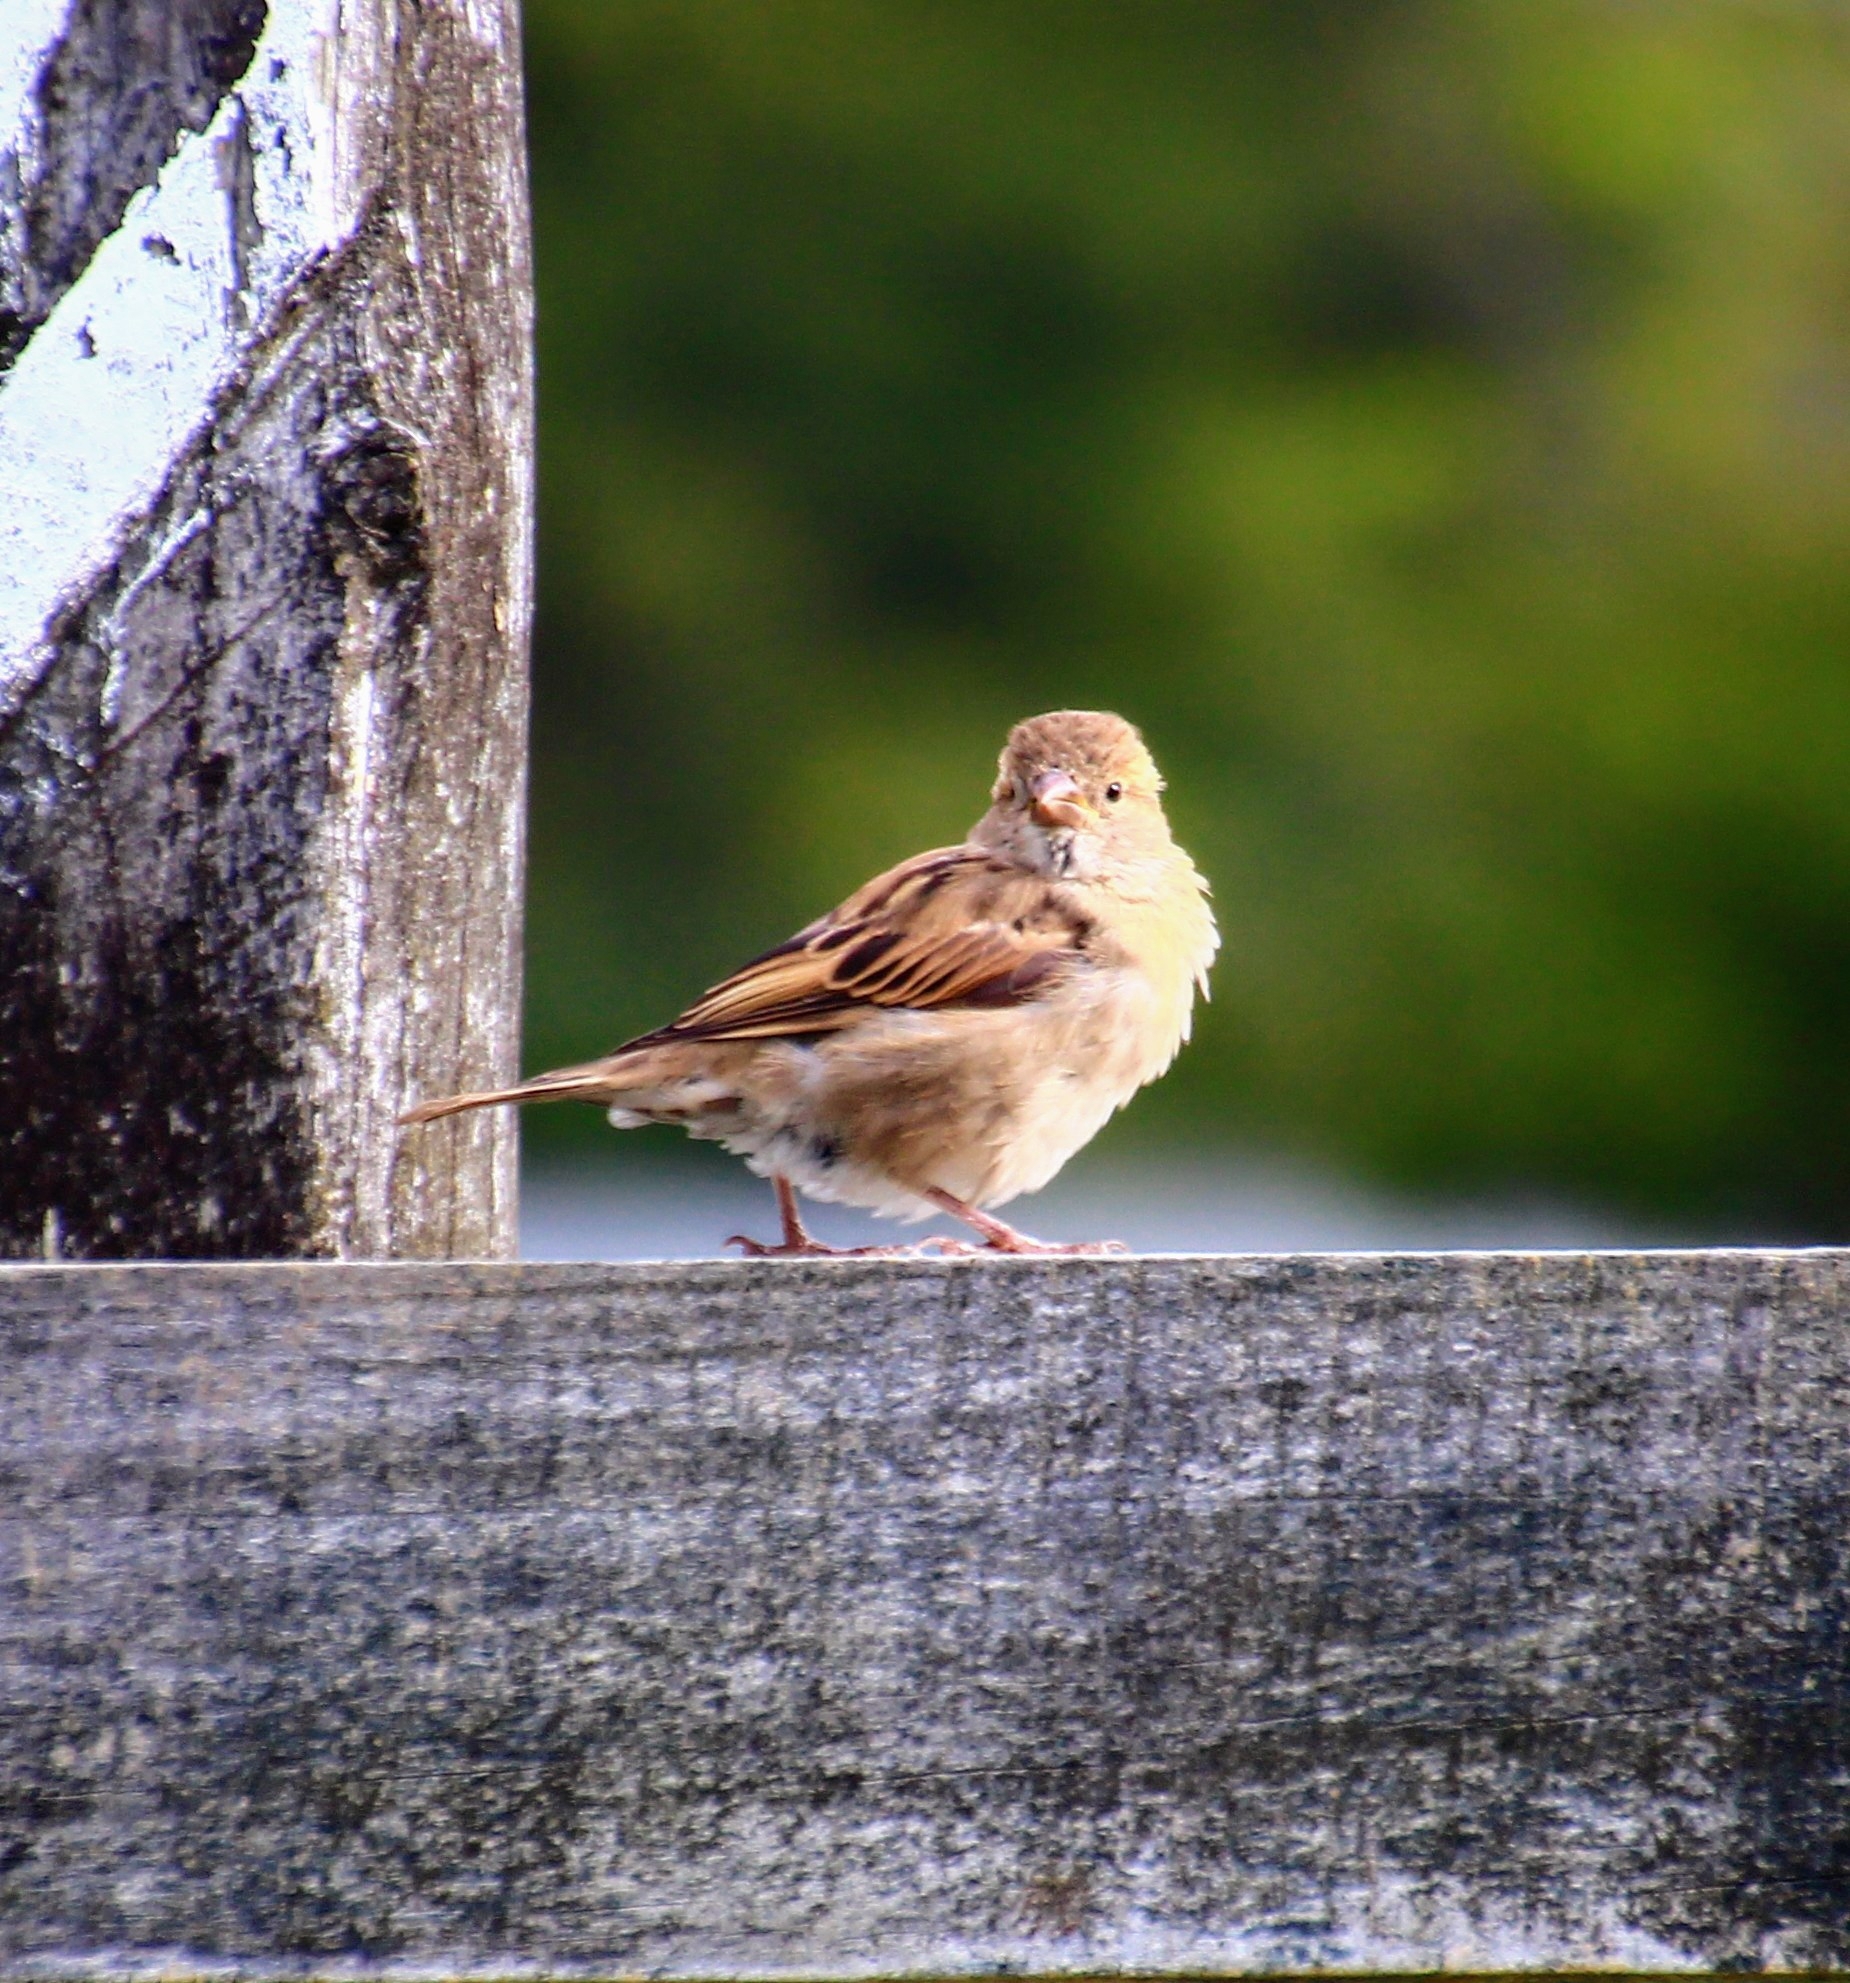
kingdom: Animalia
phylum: Chordata
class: Aves
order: Passeriformes
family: Passeridae
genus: Passer
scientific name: Passer domesticus
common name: House sparrow
